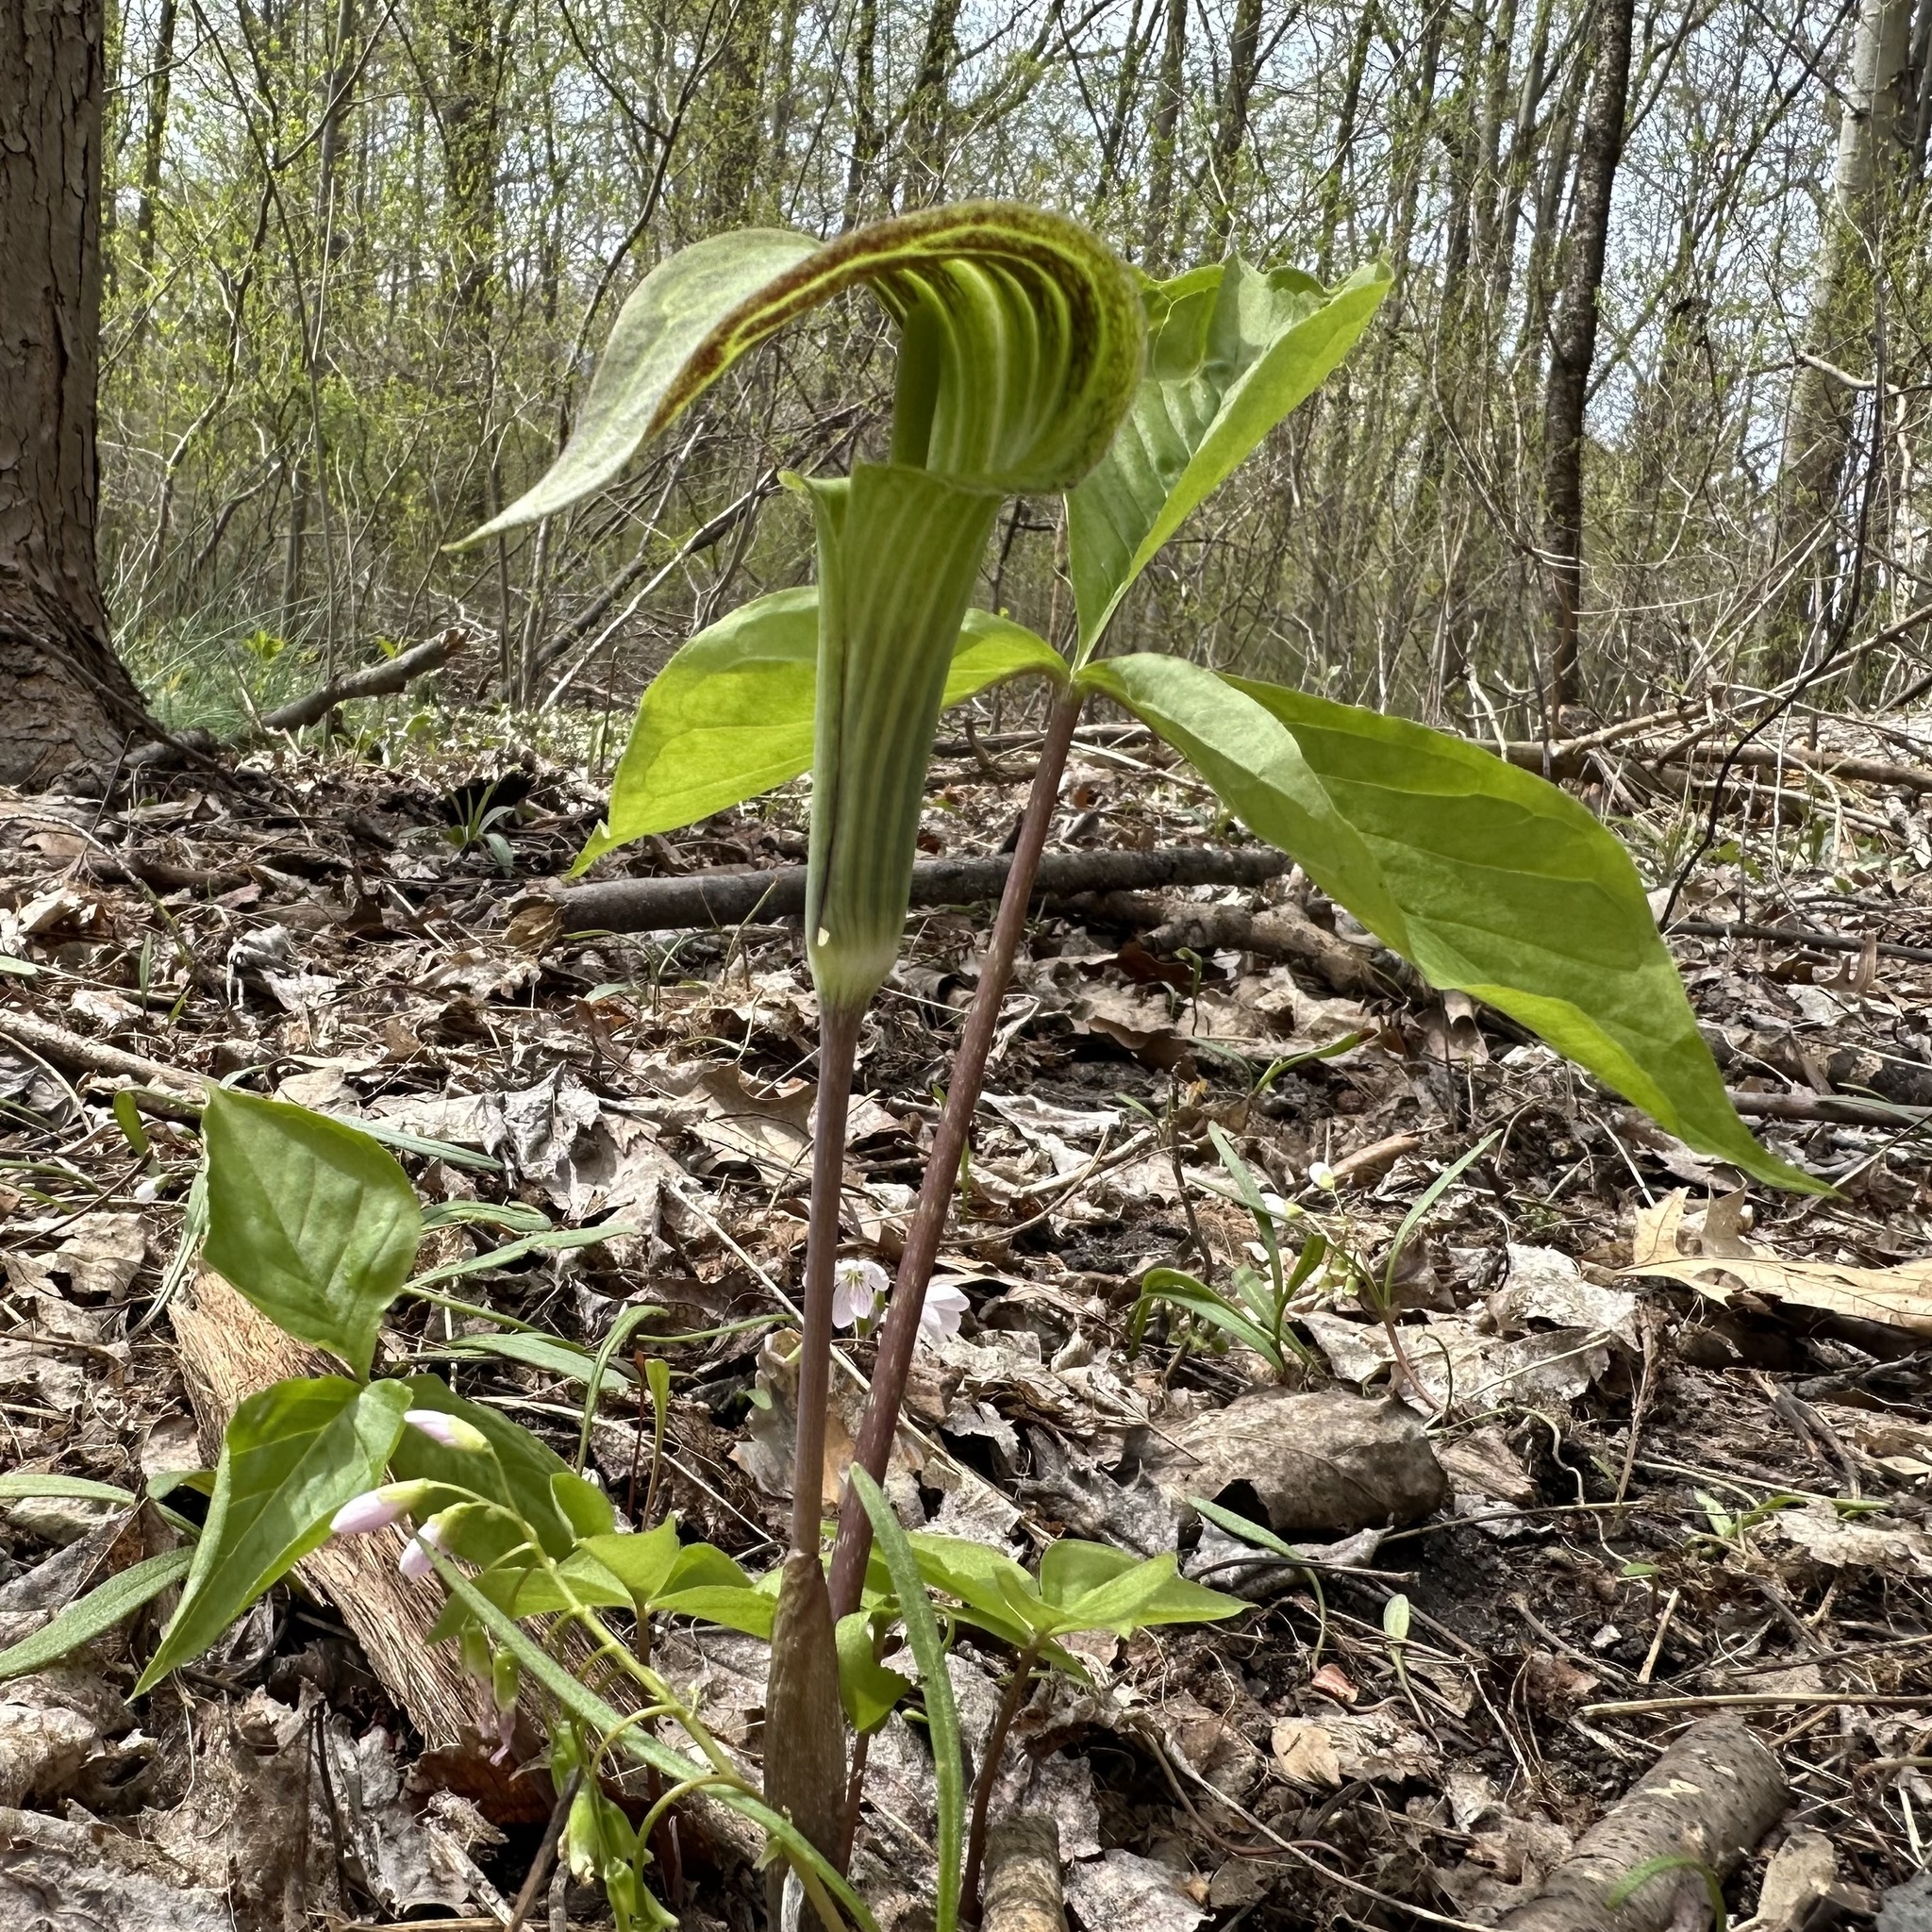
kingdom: Plantae
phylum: Tracheophyta
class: Liliopsida
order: Alismatales
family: Araceae
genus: Arisaema
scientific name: Arisaema triphyllum
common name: Jack-in-the-pulpit
